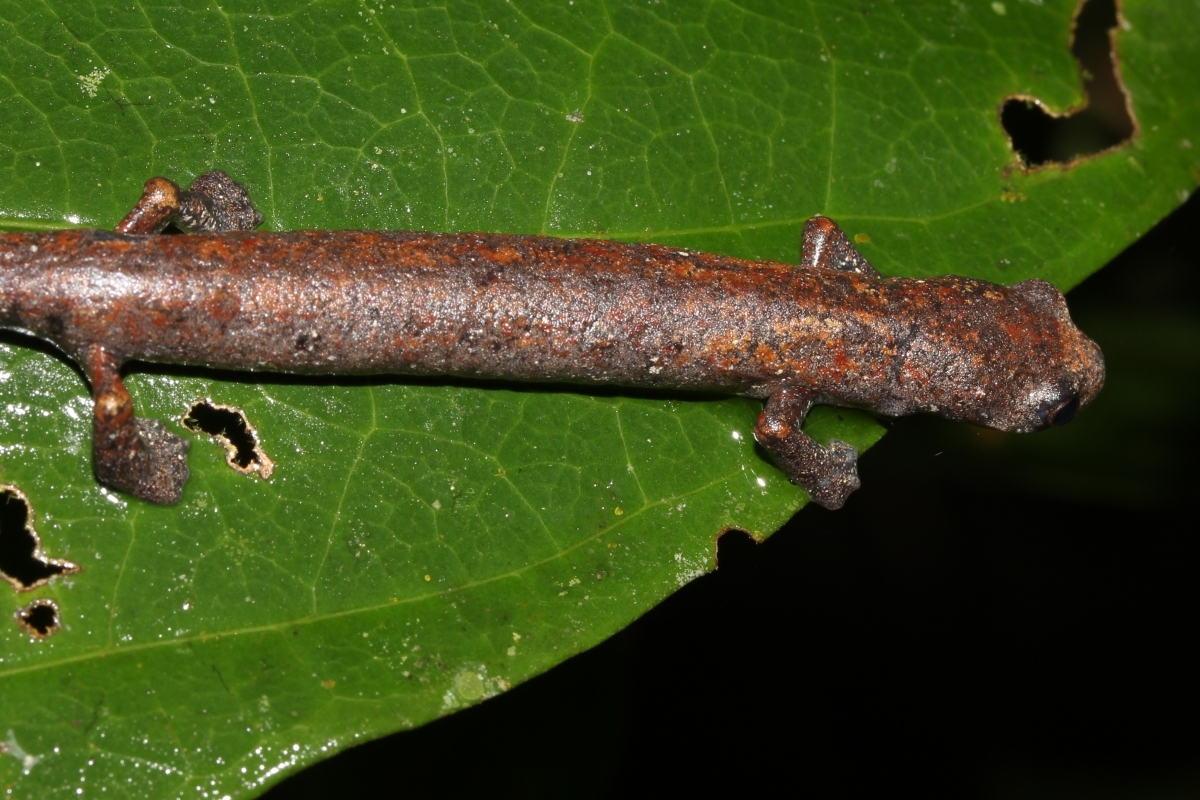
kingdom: Animalia
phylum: Chordata
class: Amphibia
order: Caudata
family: Plethodontidae
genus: Bolitoglossa
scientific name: Bolitoglossa altamazonica
